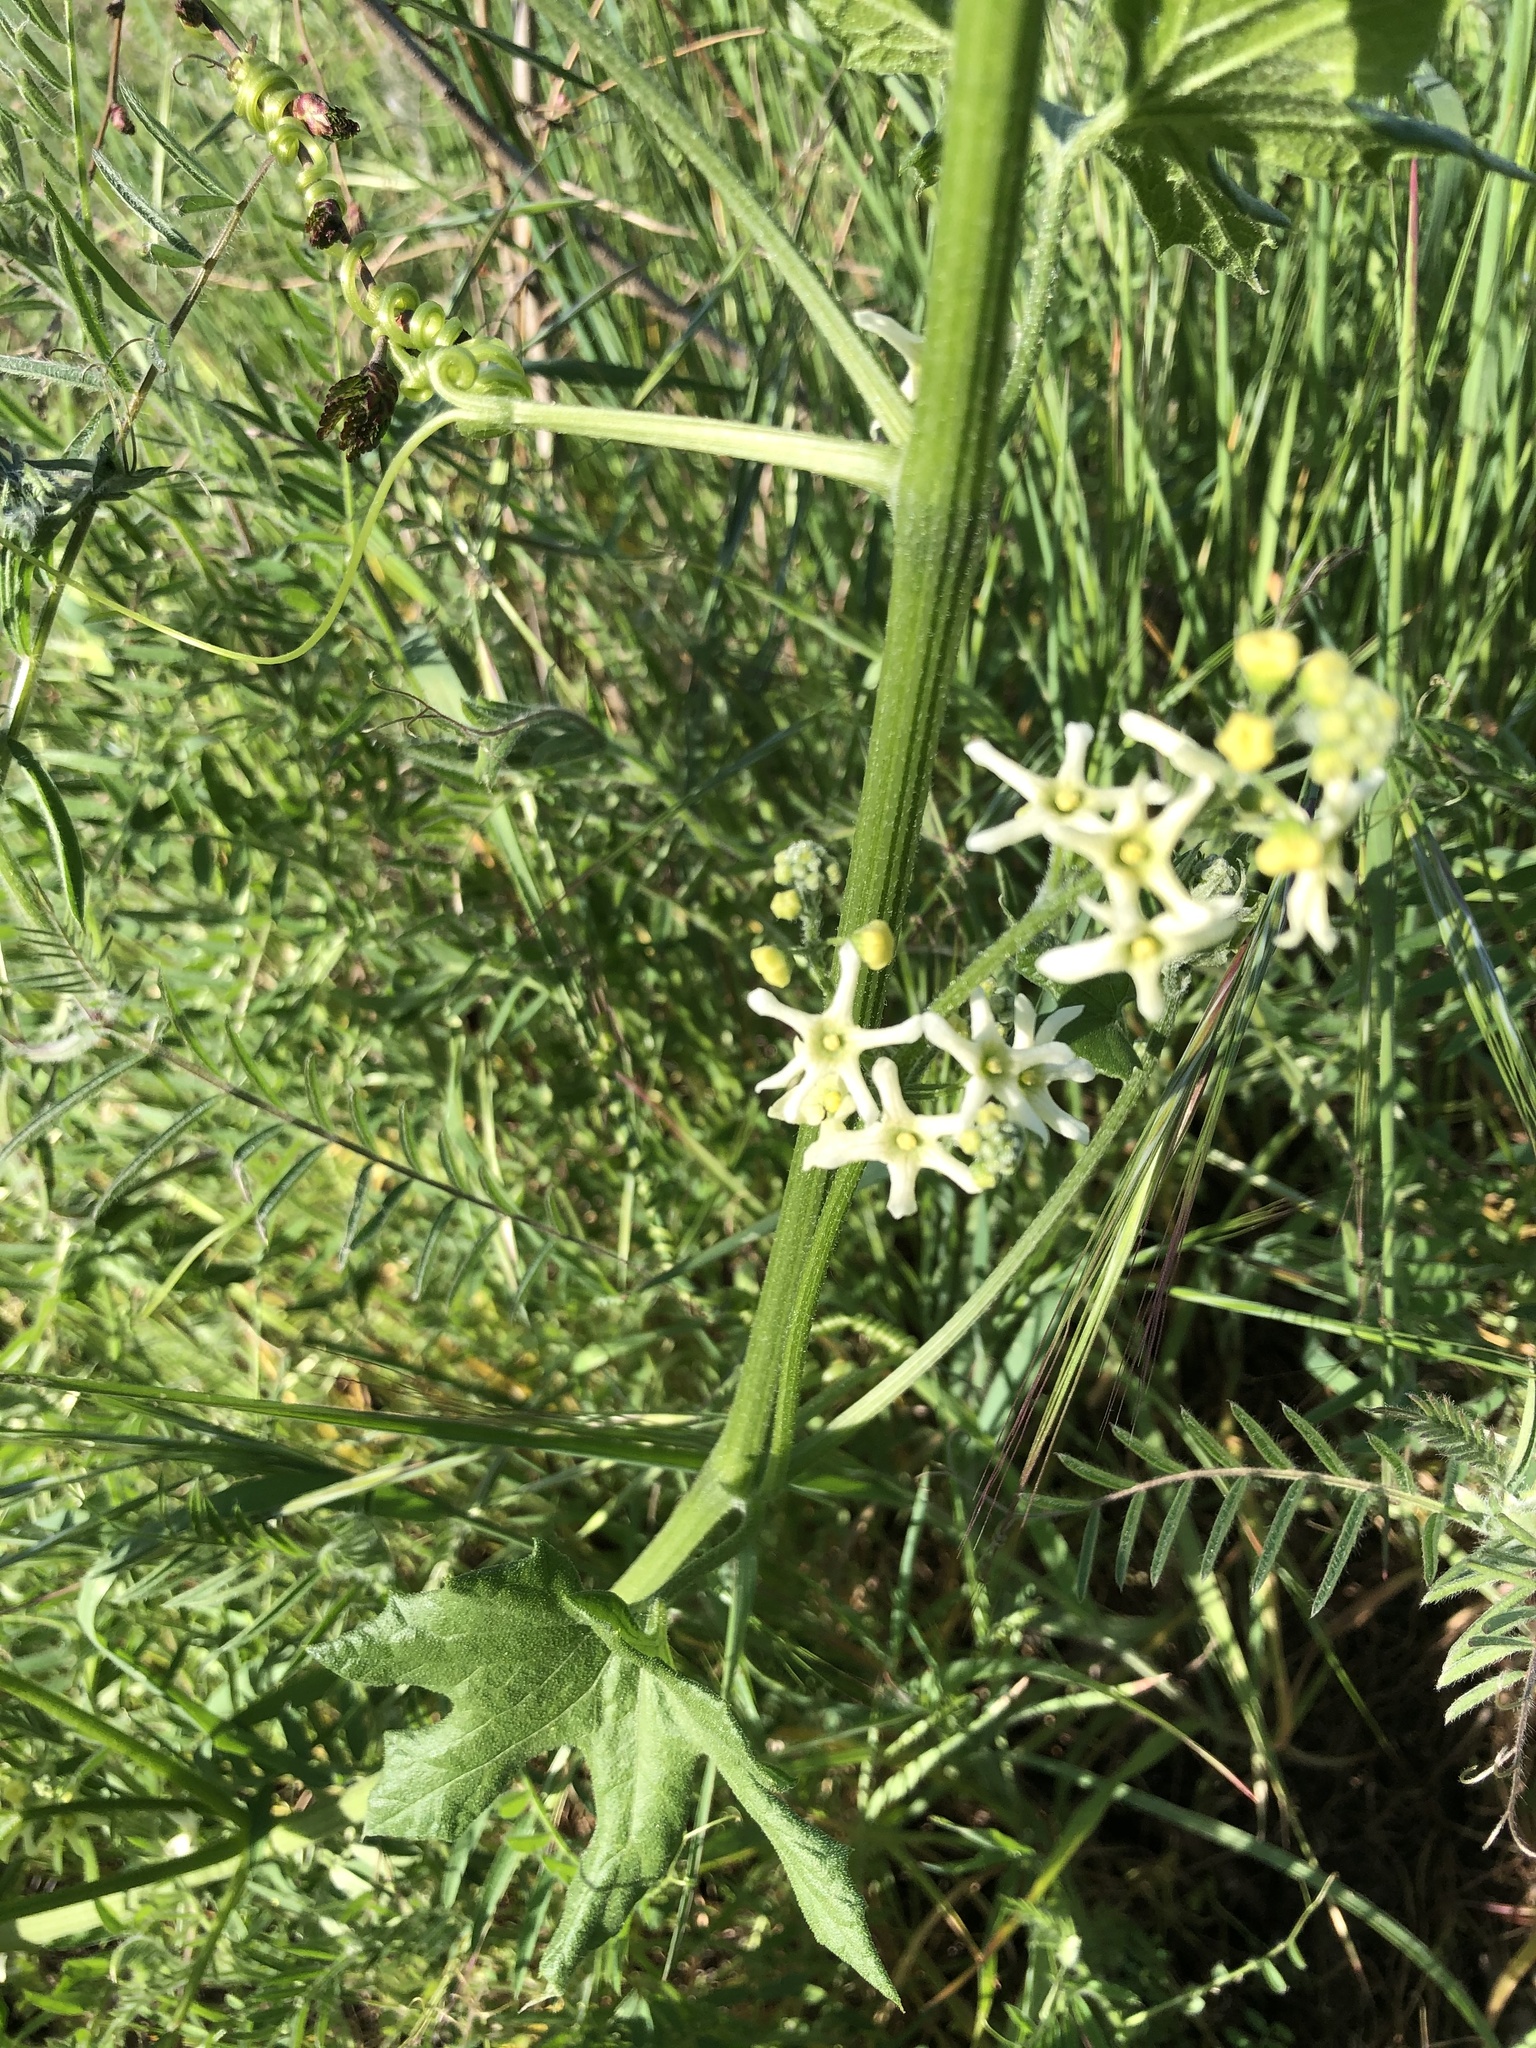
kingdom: Plantae
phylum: Tracheophyta
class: Magnoliopsida
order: Cucurbitales
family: Cucurbitaceae
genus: Marah
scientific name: Marah fabacea
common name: California manroot
